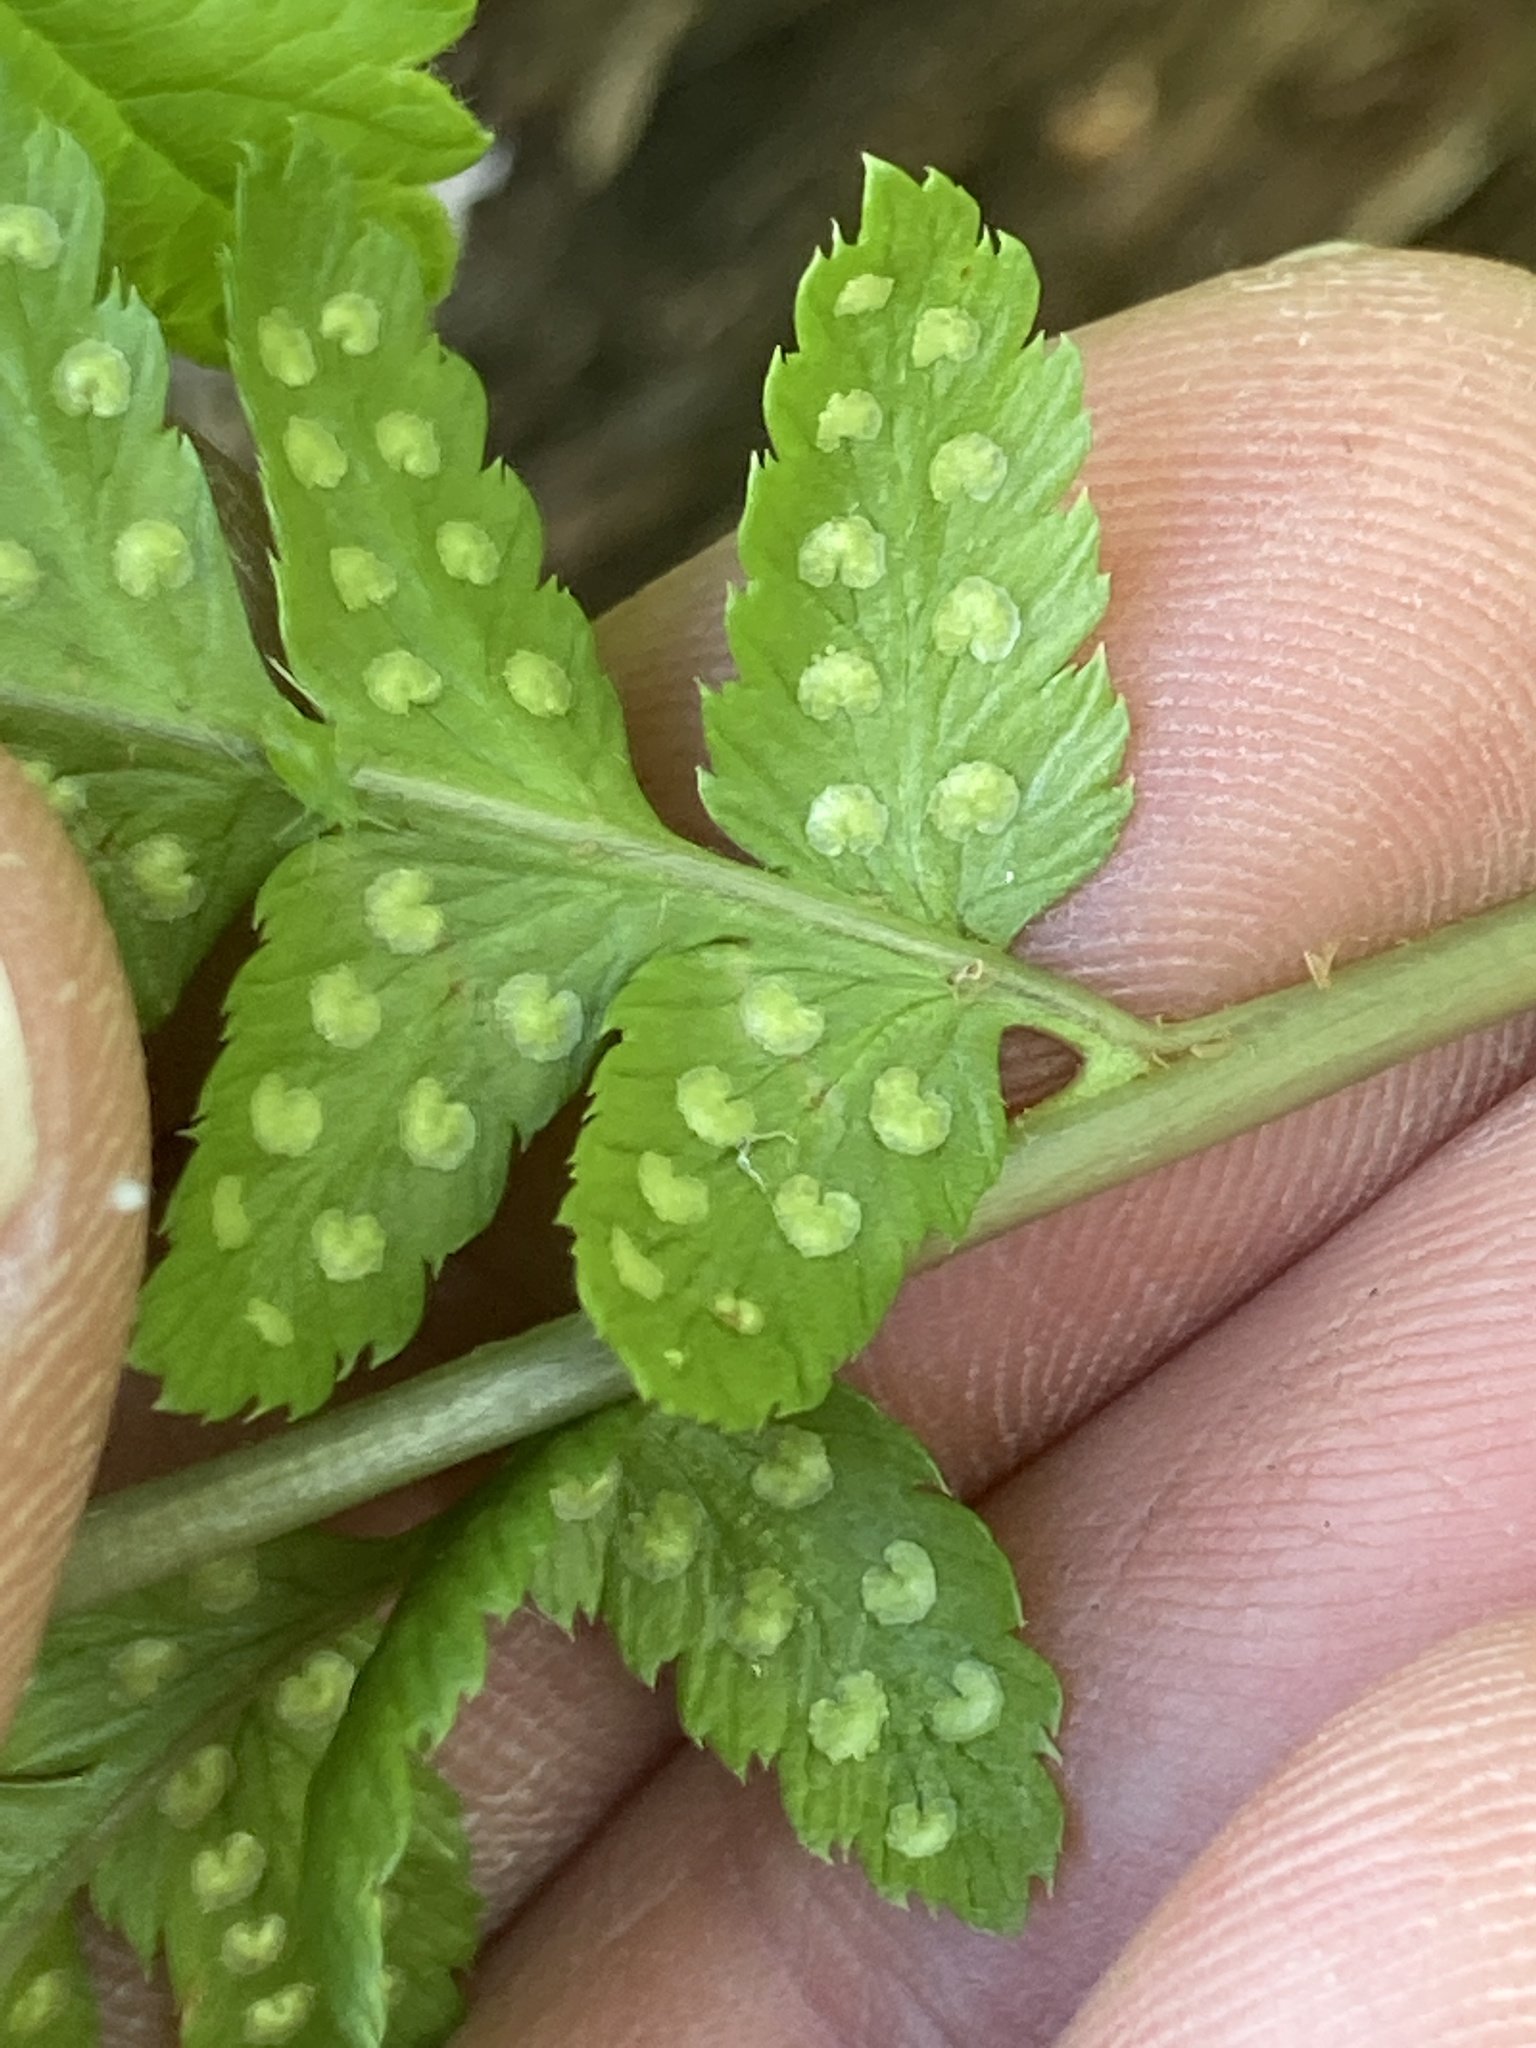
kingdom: Plantae
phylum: Tracheophyta
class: Polypodiopsida
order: Polypodiales
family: Dryopteridaceae
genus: Dryopteris
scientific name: Dryopteris cristata
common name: Crested wood fern
